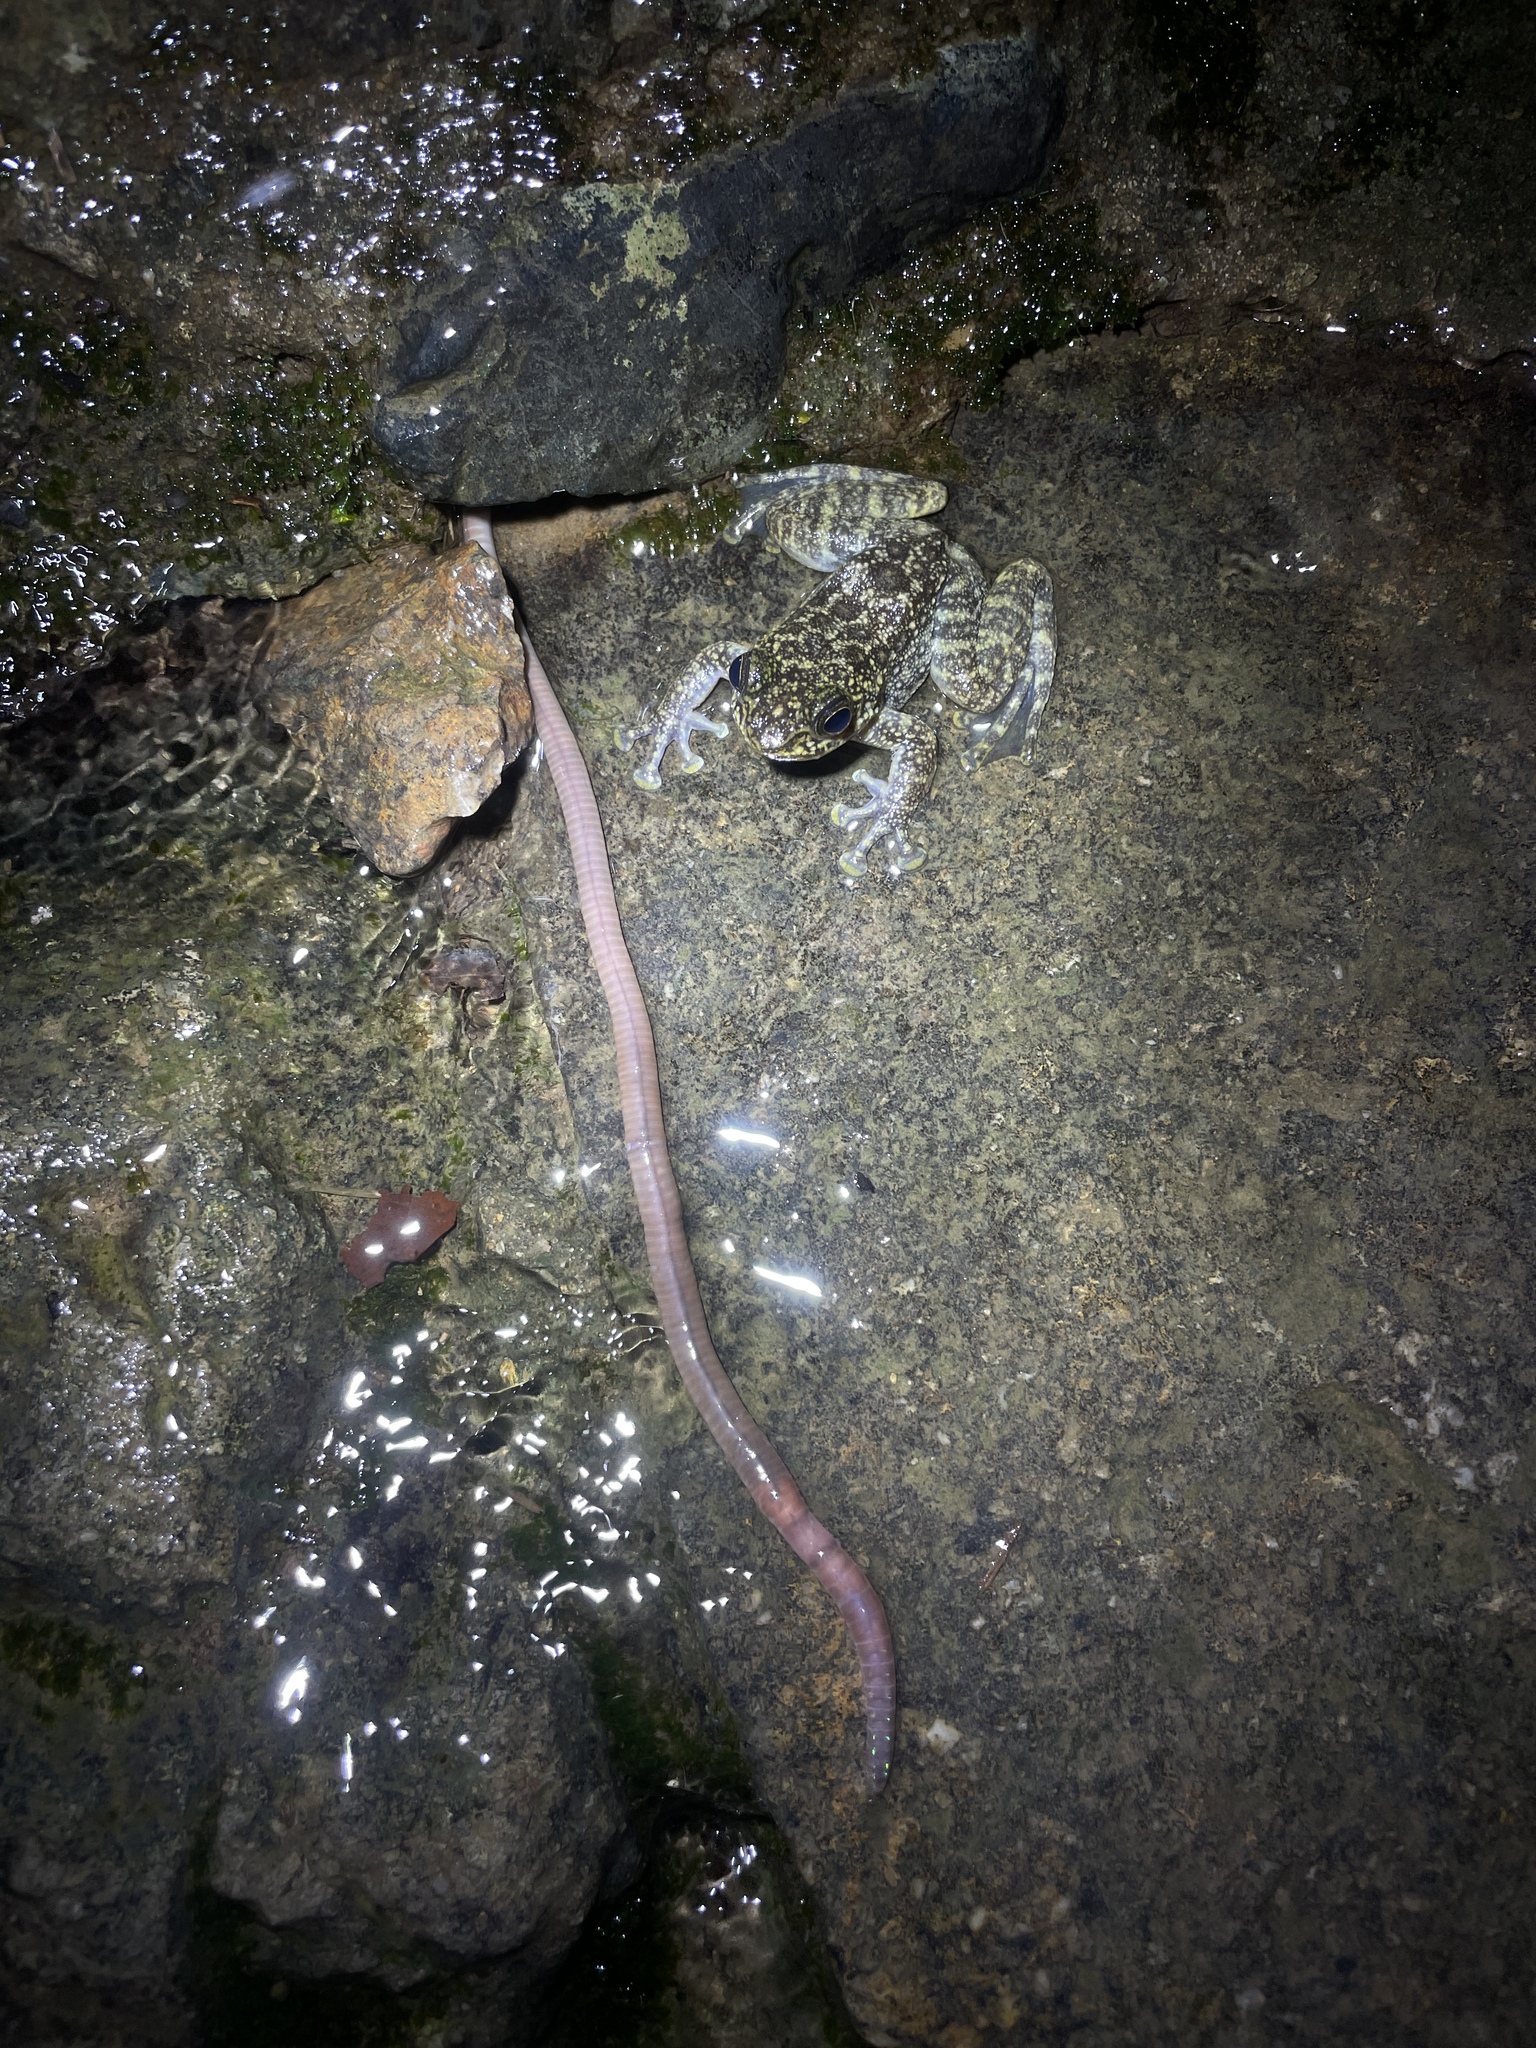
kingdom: Animalia
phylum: Chordata
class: Amphibia
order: Anura
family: Ranidae
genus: Amolops
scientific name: Amolops hongkongensis
